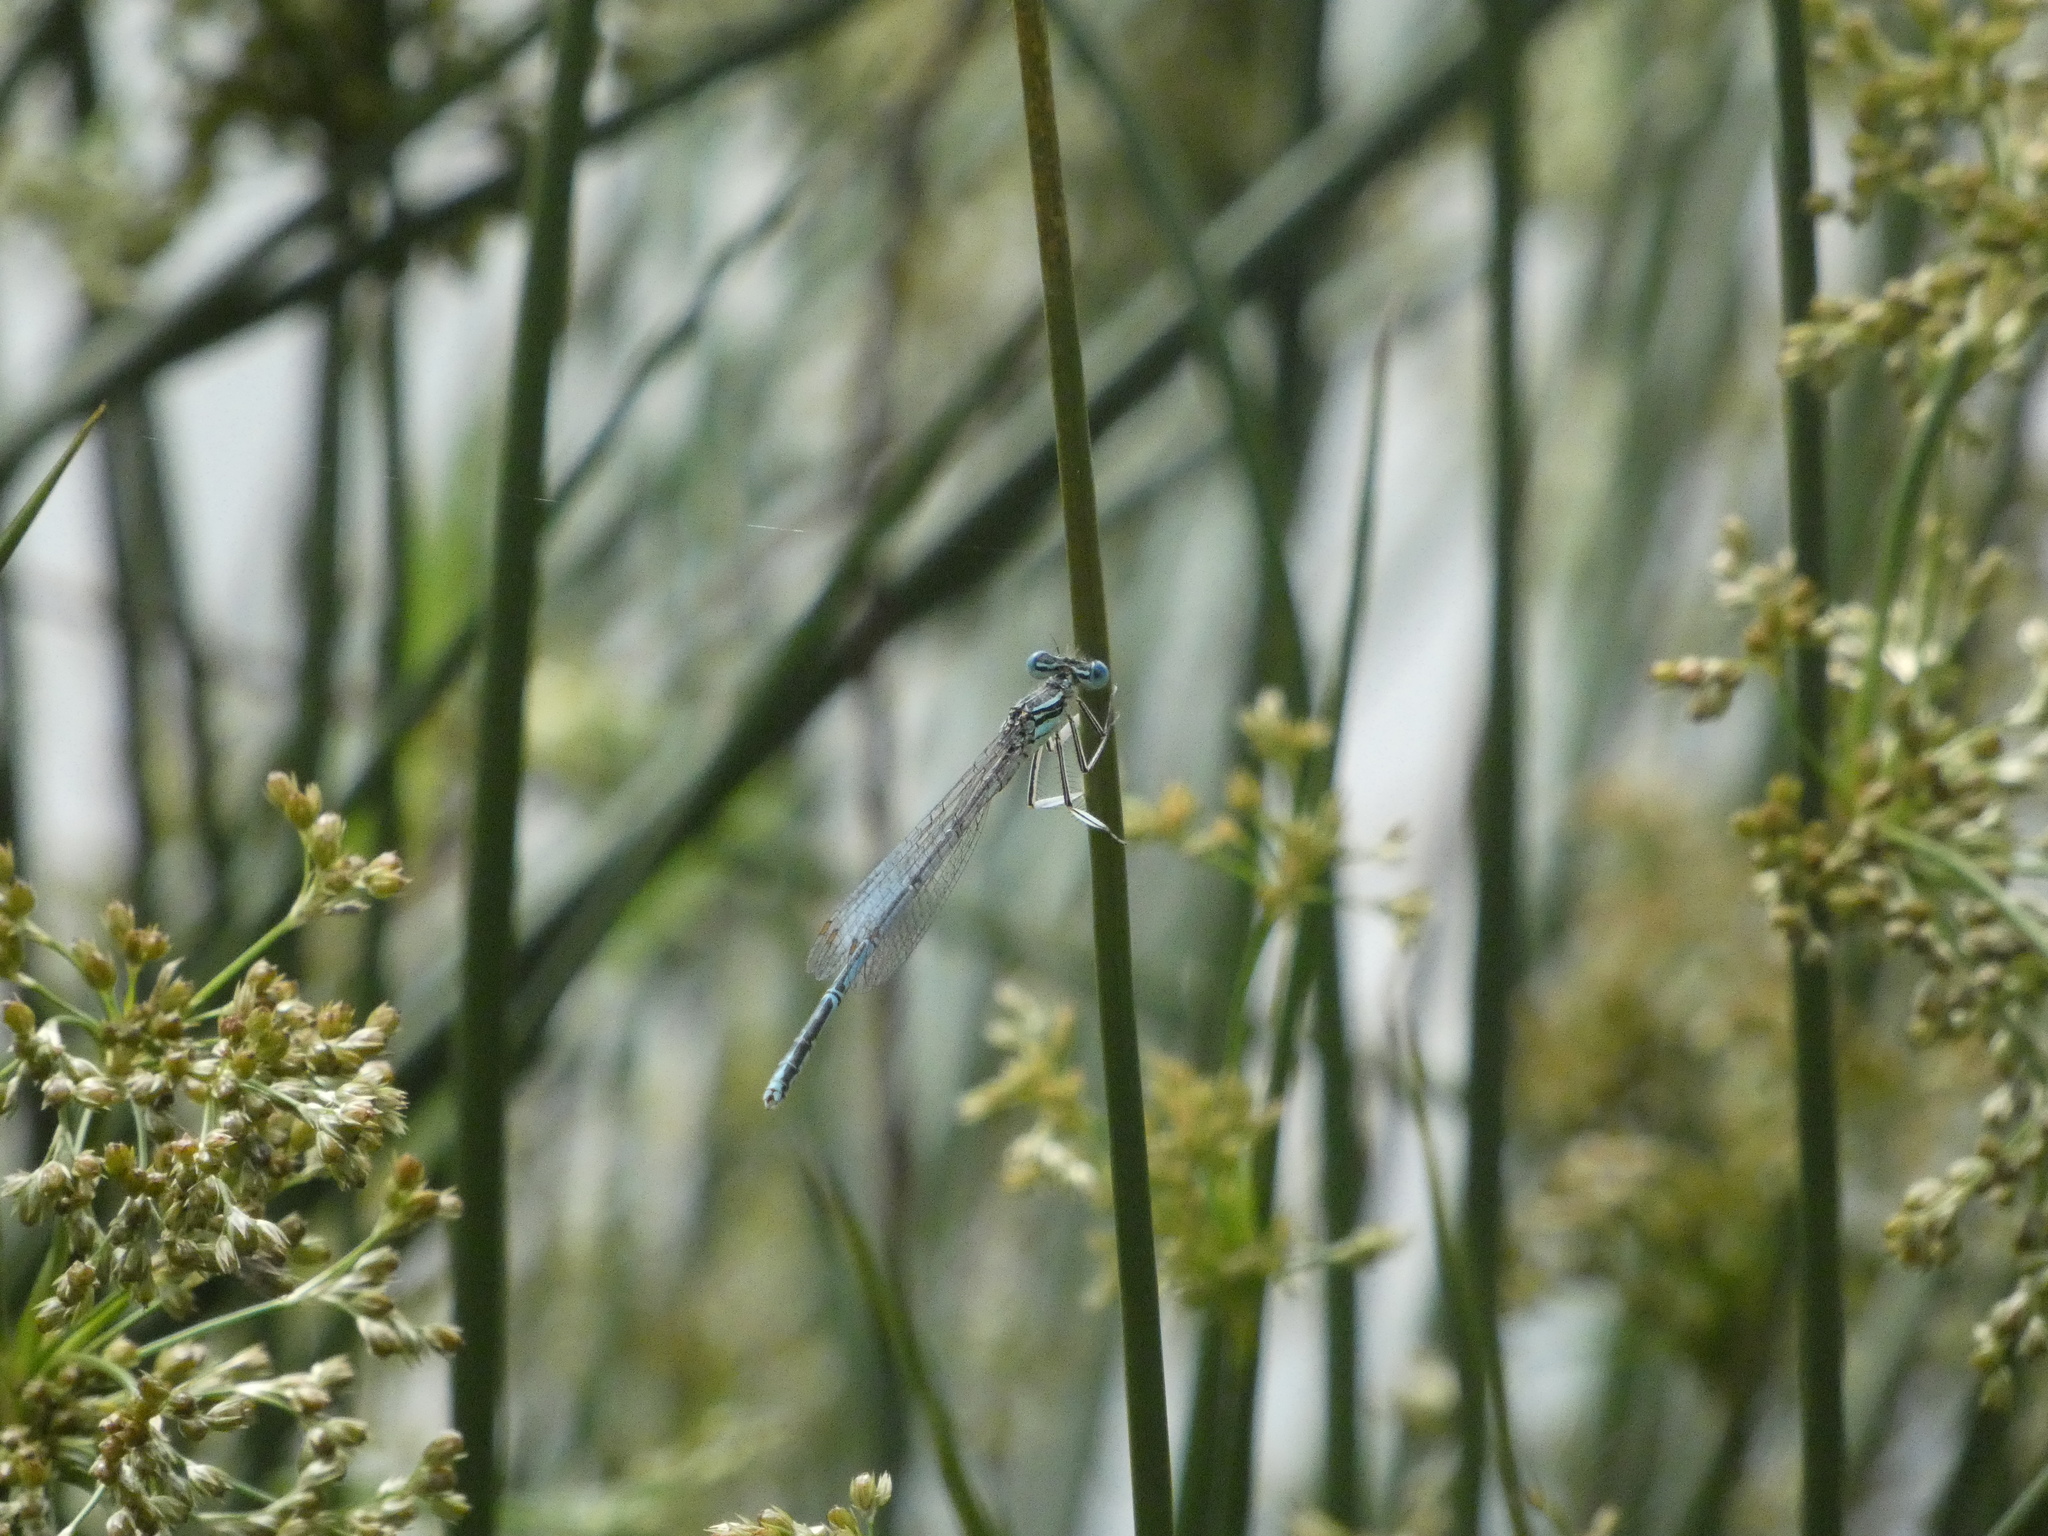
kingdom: Animalia
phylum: Arthropoda
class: Insecta
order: Odonata
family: Platycnemididae
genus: Platycnemis
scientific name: Platycnemis pennipes
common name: White-legged damselfly
